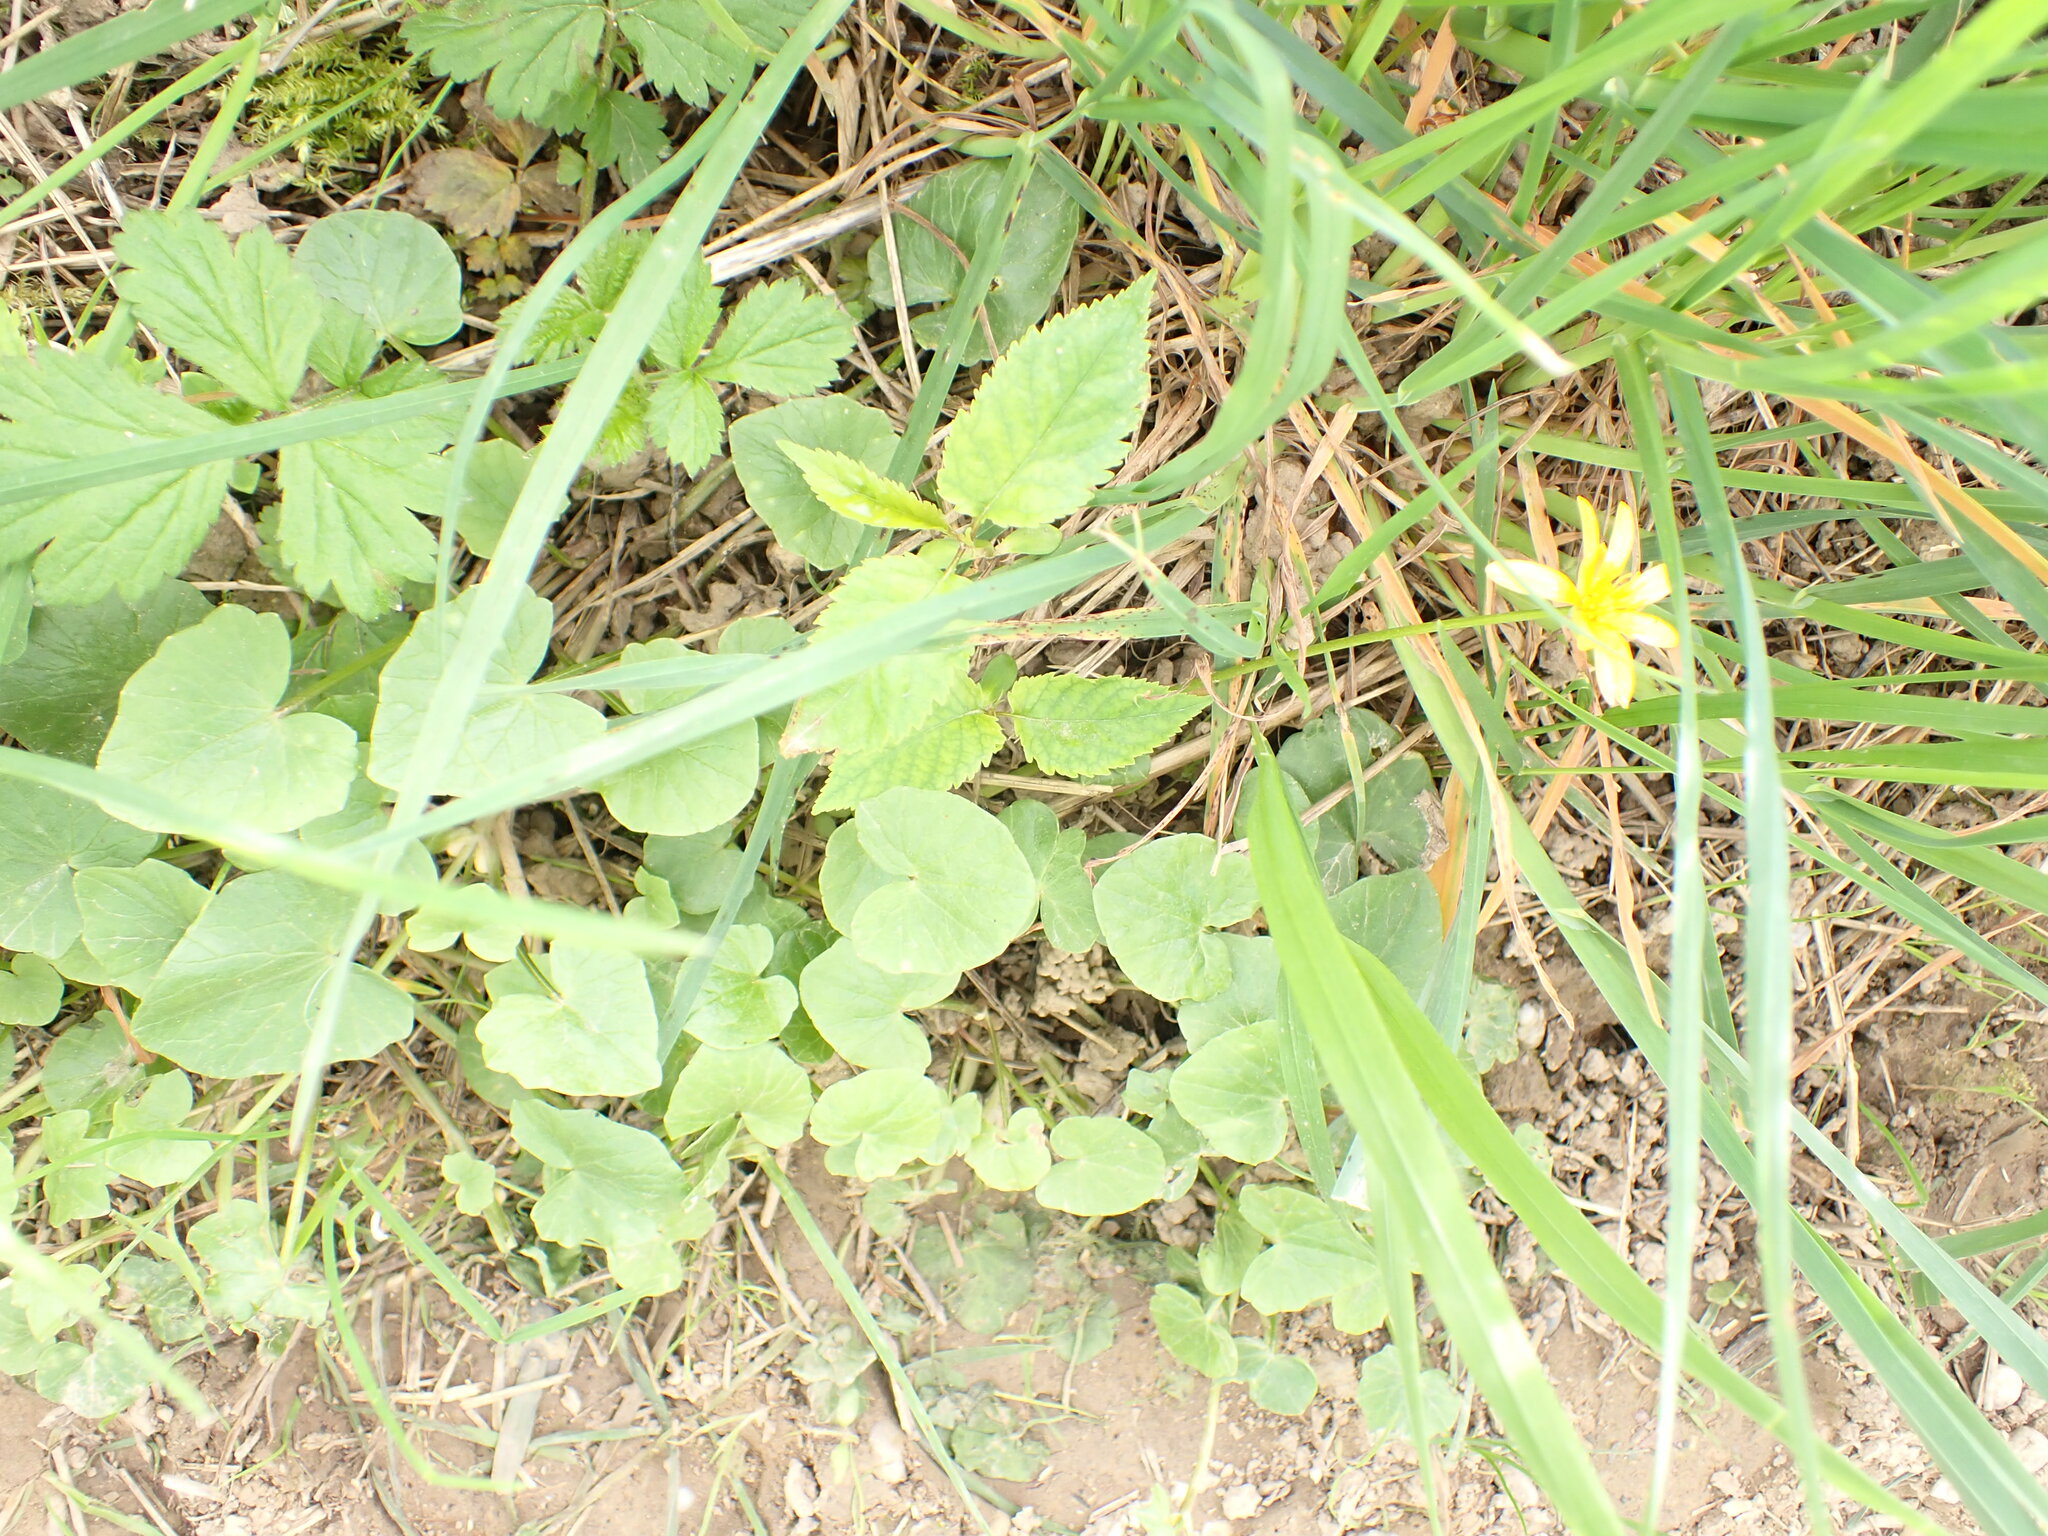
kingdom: Plantae
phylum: Tracheophyta
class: Magnoliopsida
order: Ranunculales
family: Ranunculaceae
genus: Ficaria
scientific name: Ficaria verna
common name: Lesser celandine
